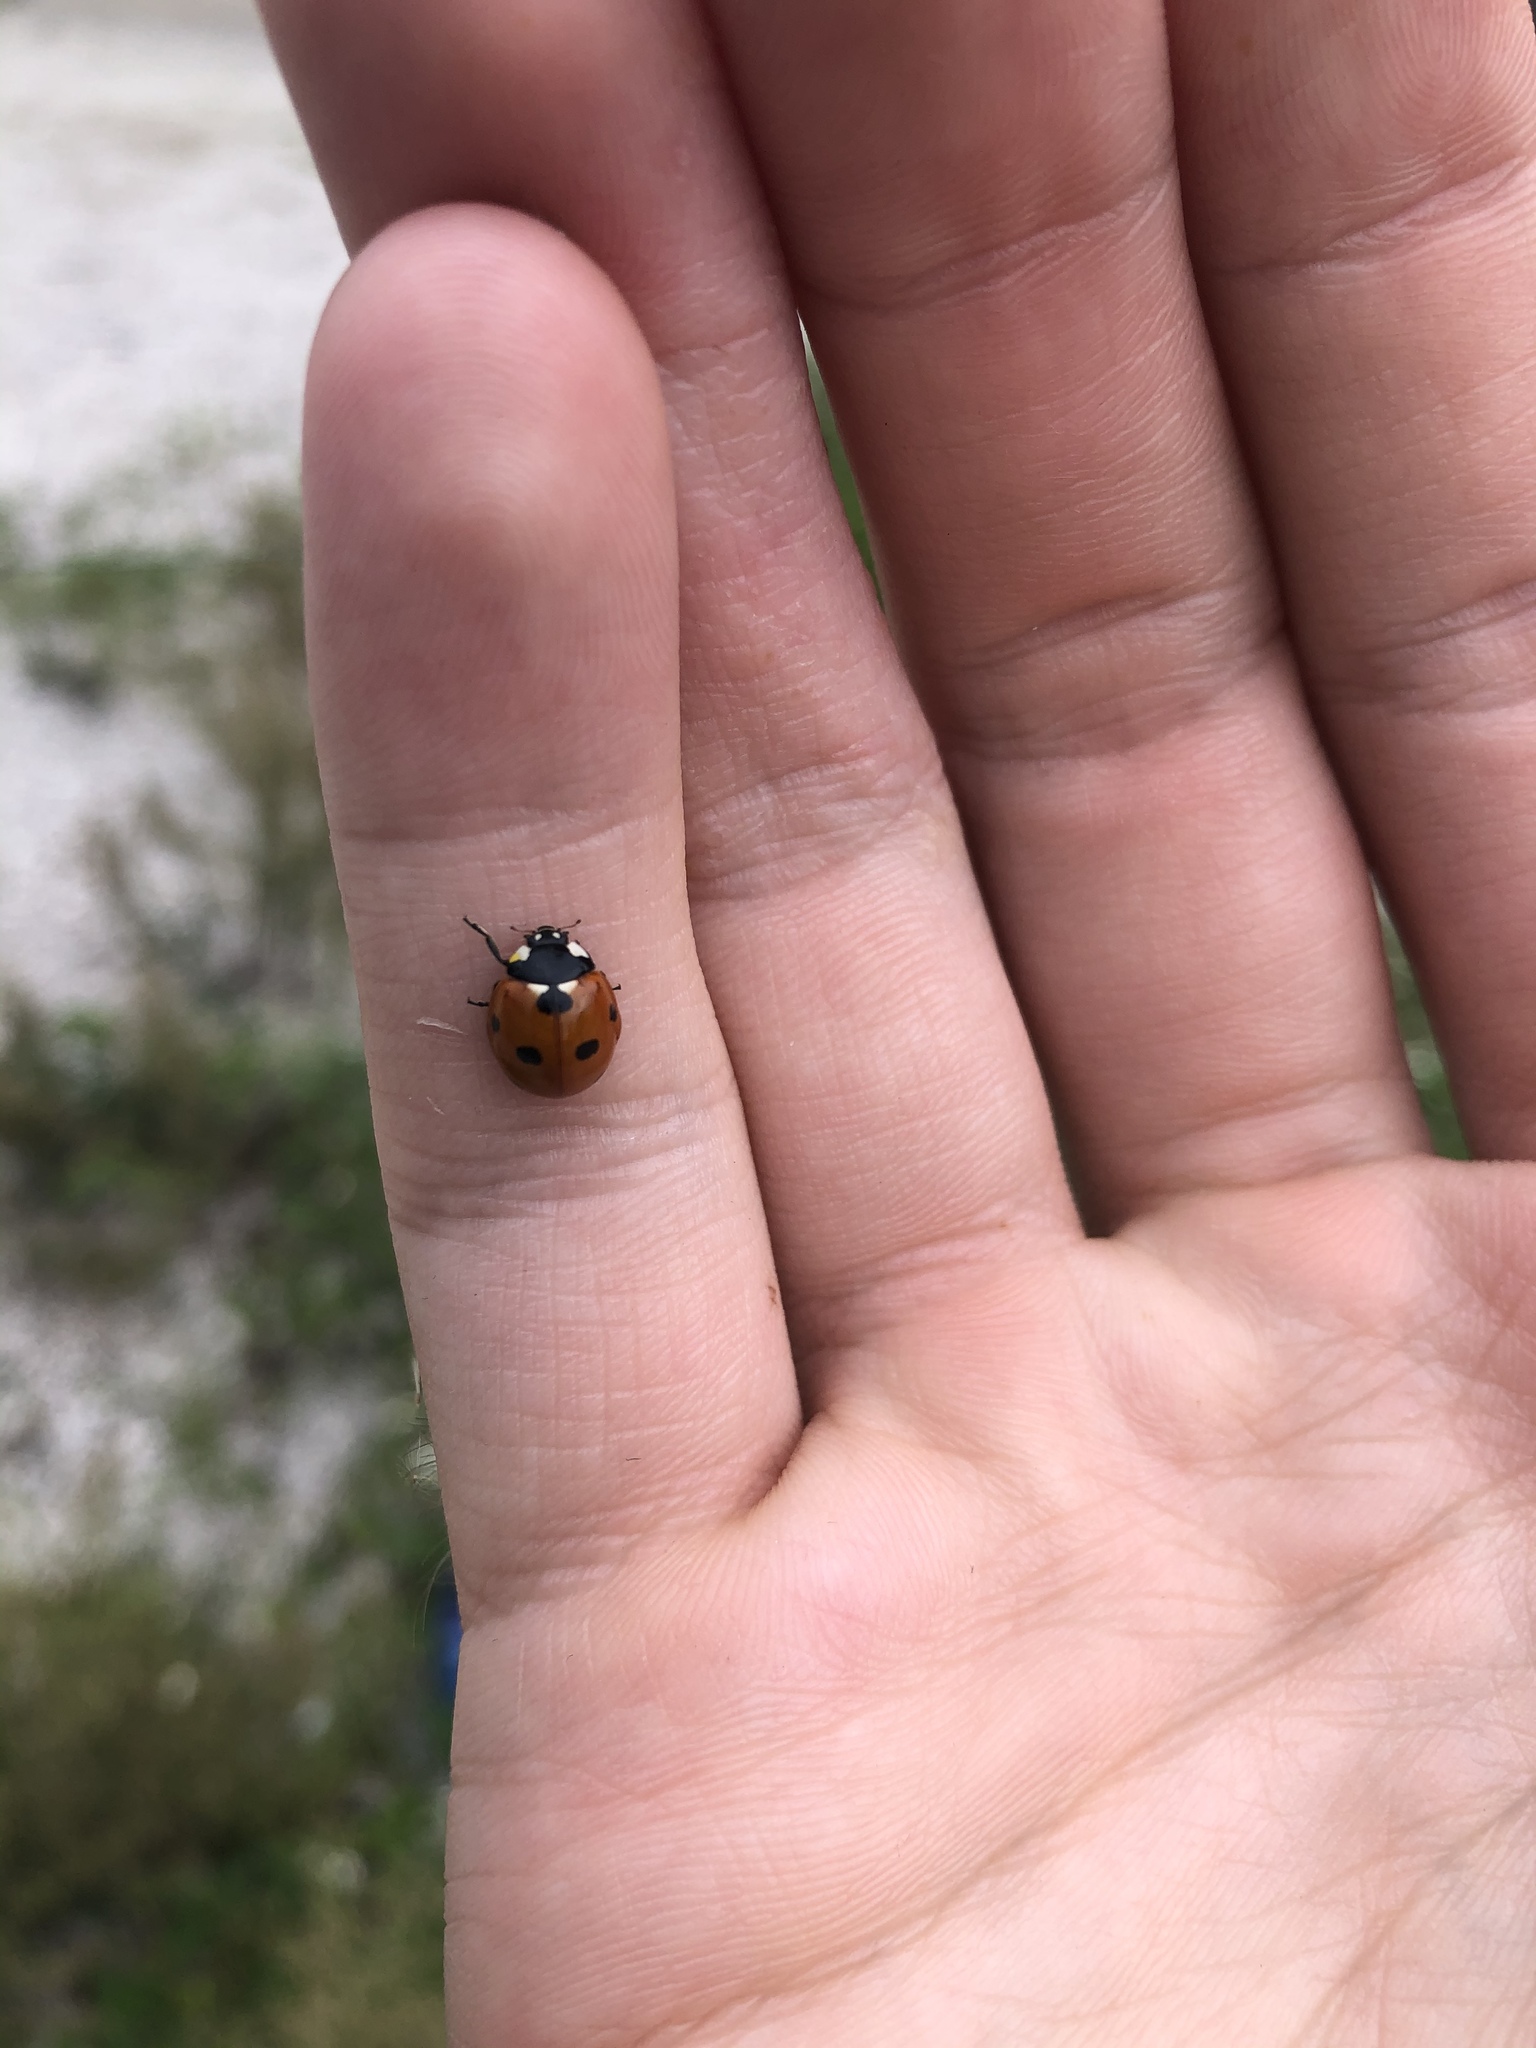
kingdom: Animalia
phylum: Arthropoda
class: Insecta
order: Coleoptera
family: Coccinellidae
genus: Coccinella
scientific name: Coccinella septempunctata
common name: Sevenspotted lady beetle
